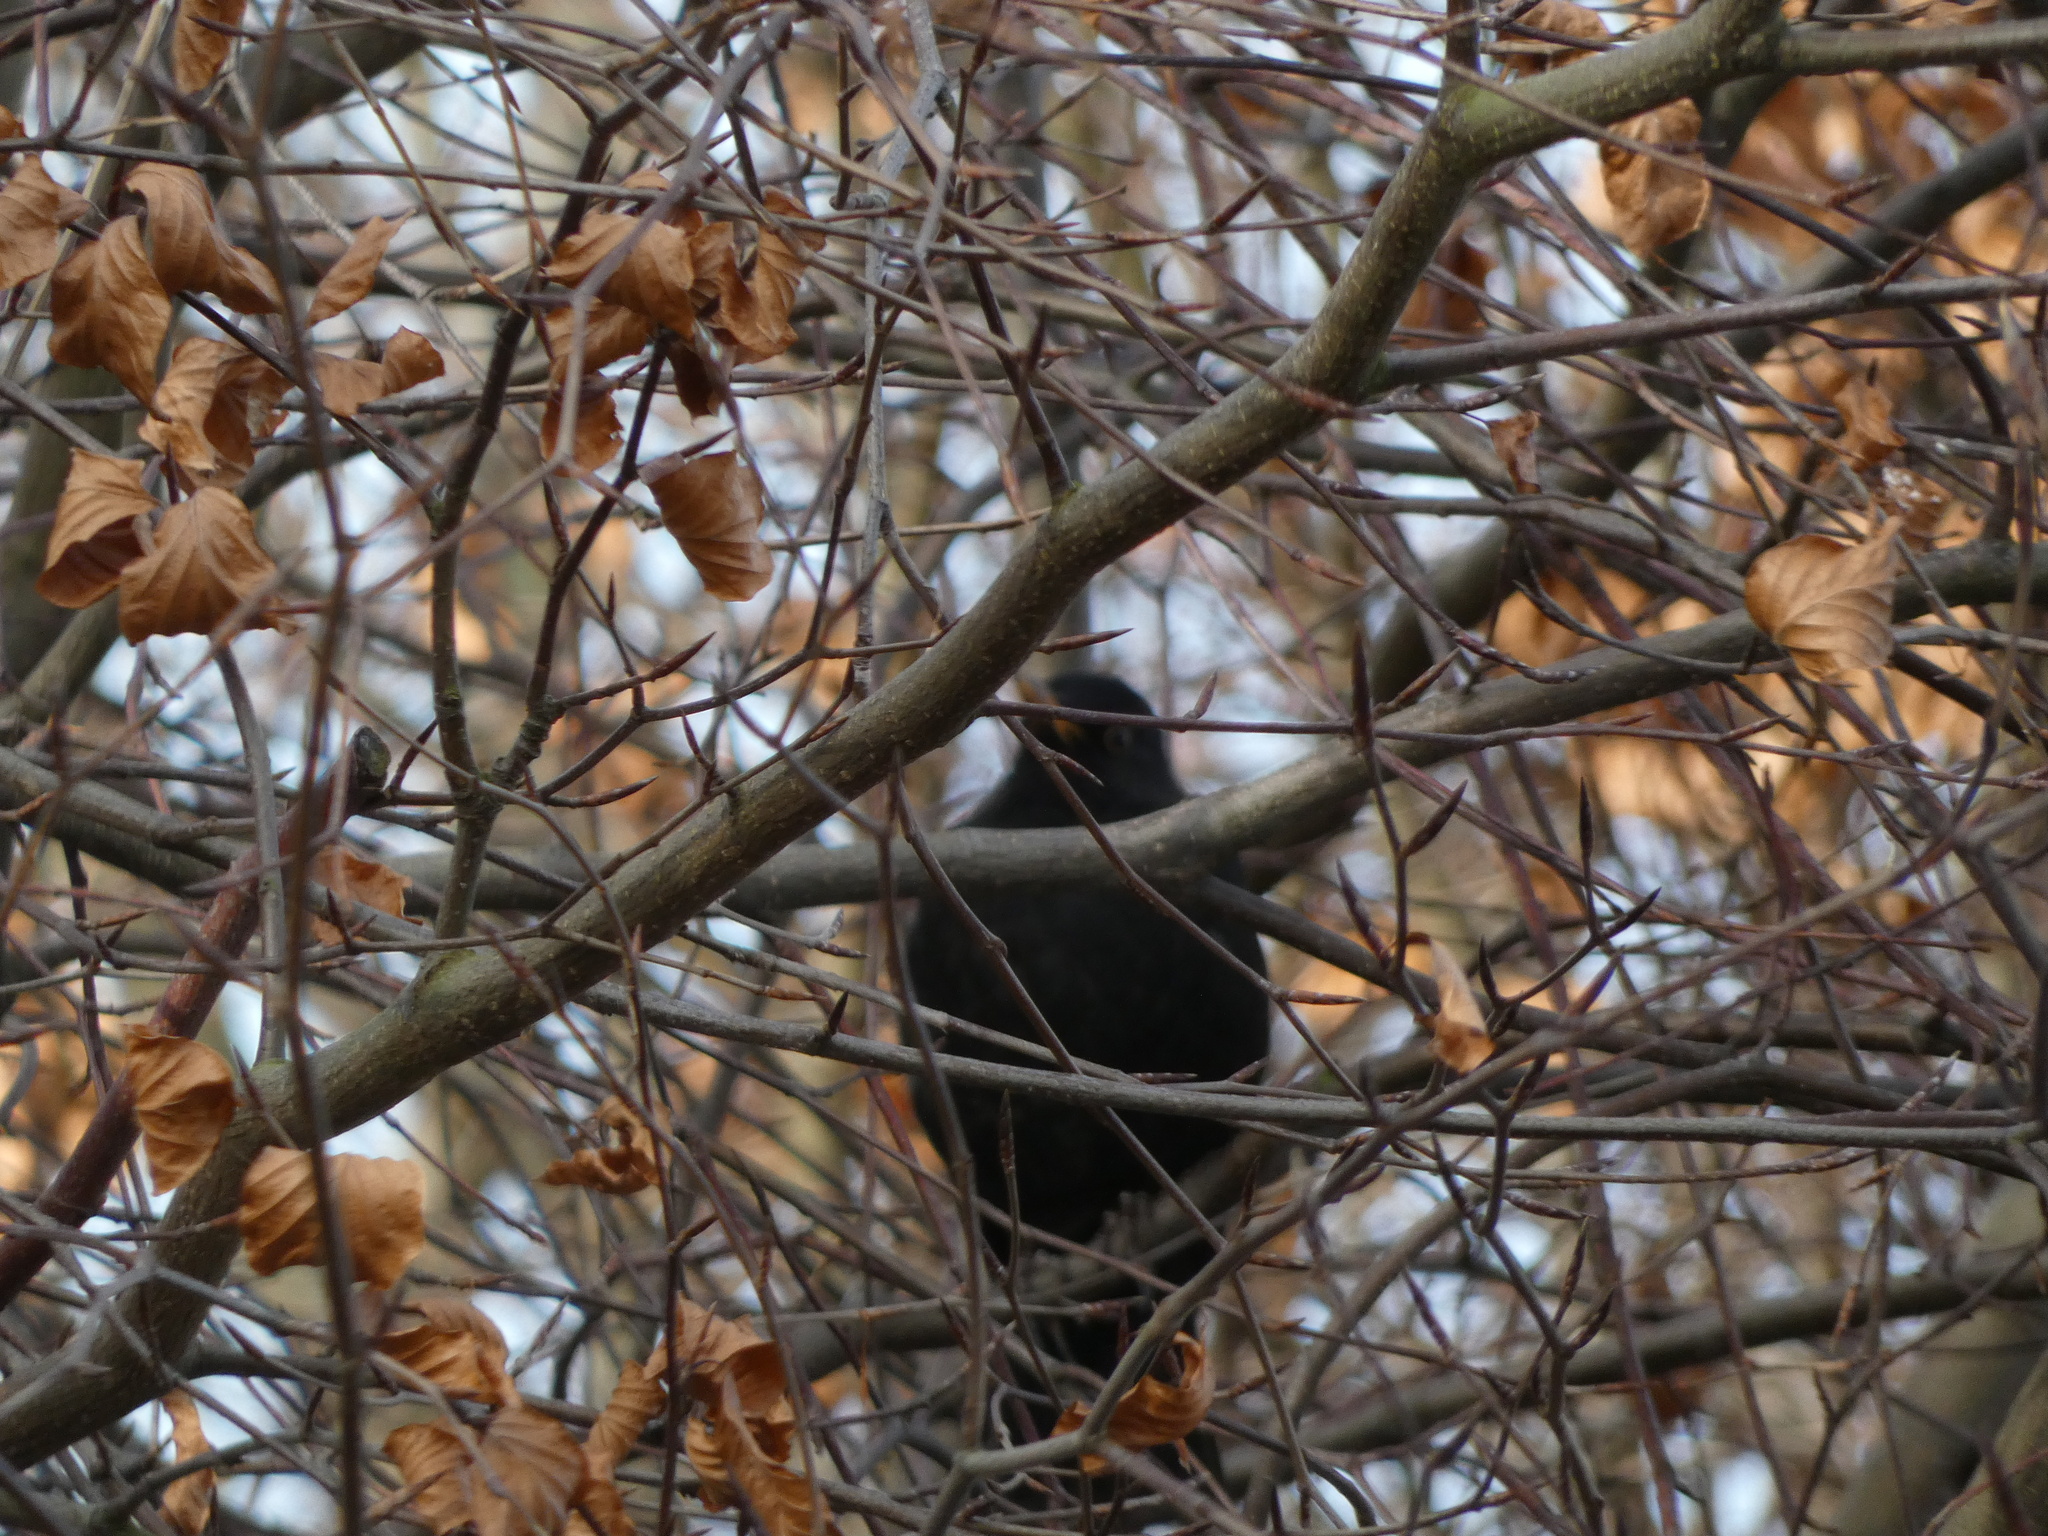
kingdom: Animalia
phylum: Chordata
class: Aves
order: Passeriformes
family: Turdidae
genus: Turdus
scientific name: Turdus merula
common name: Common blackbird
